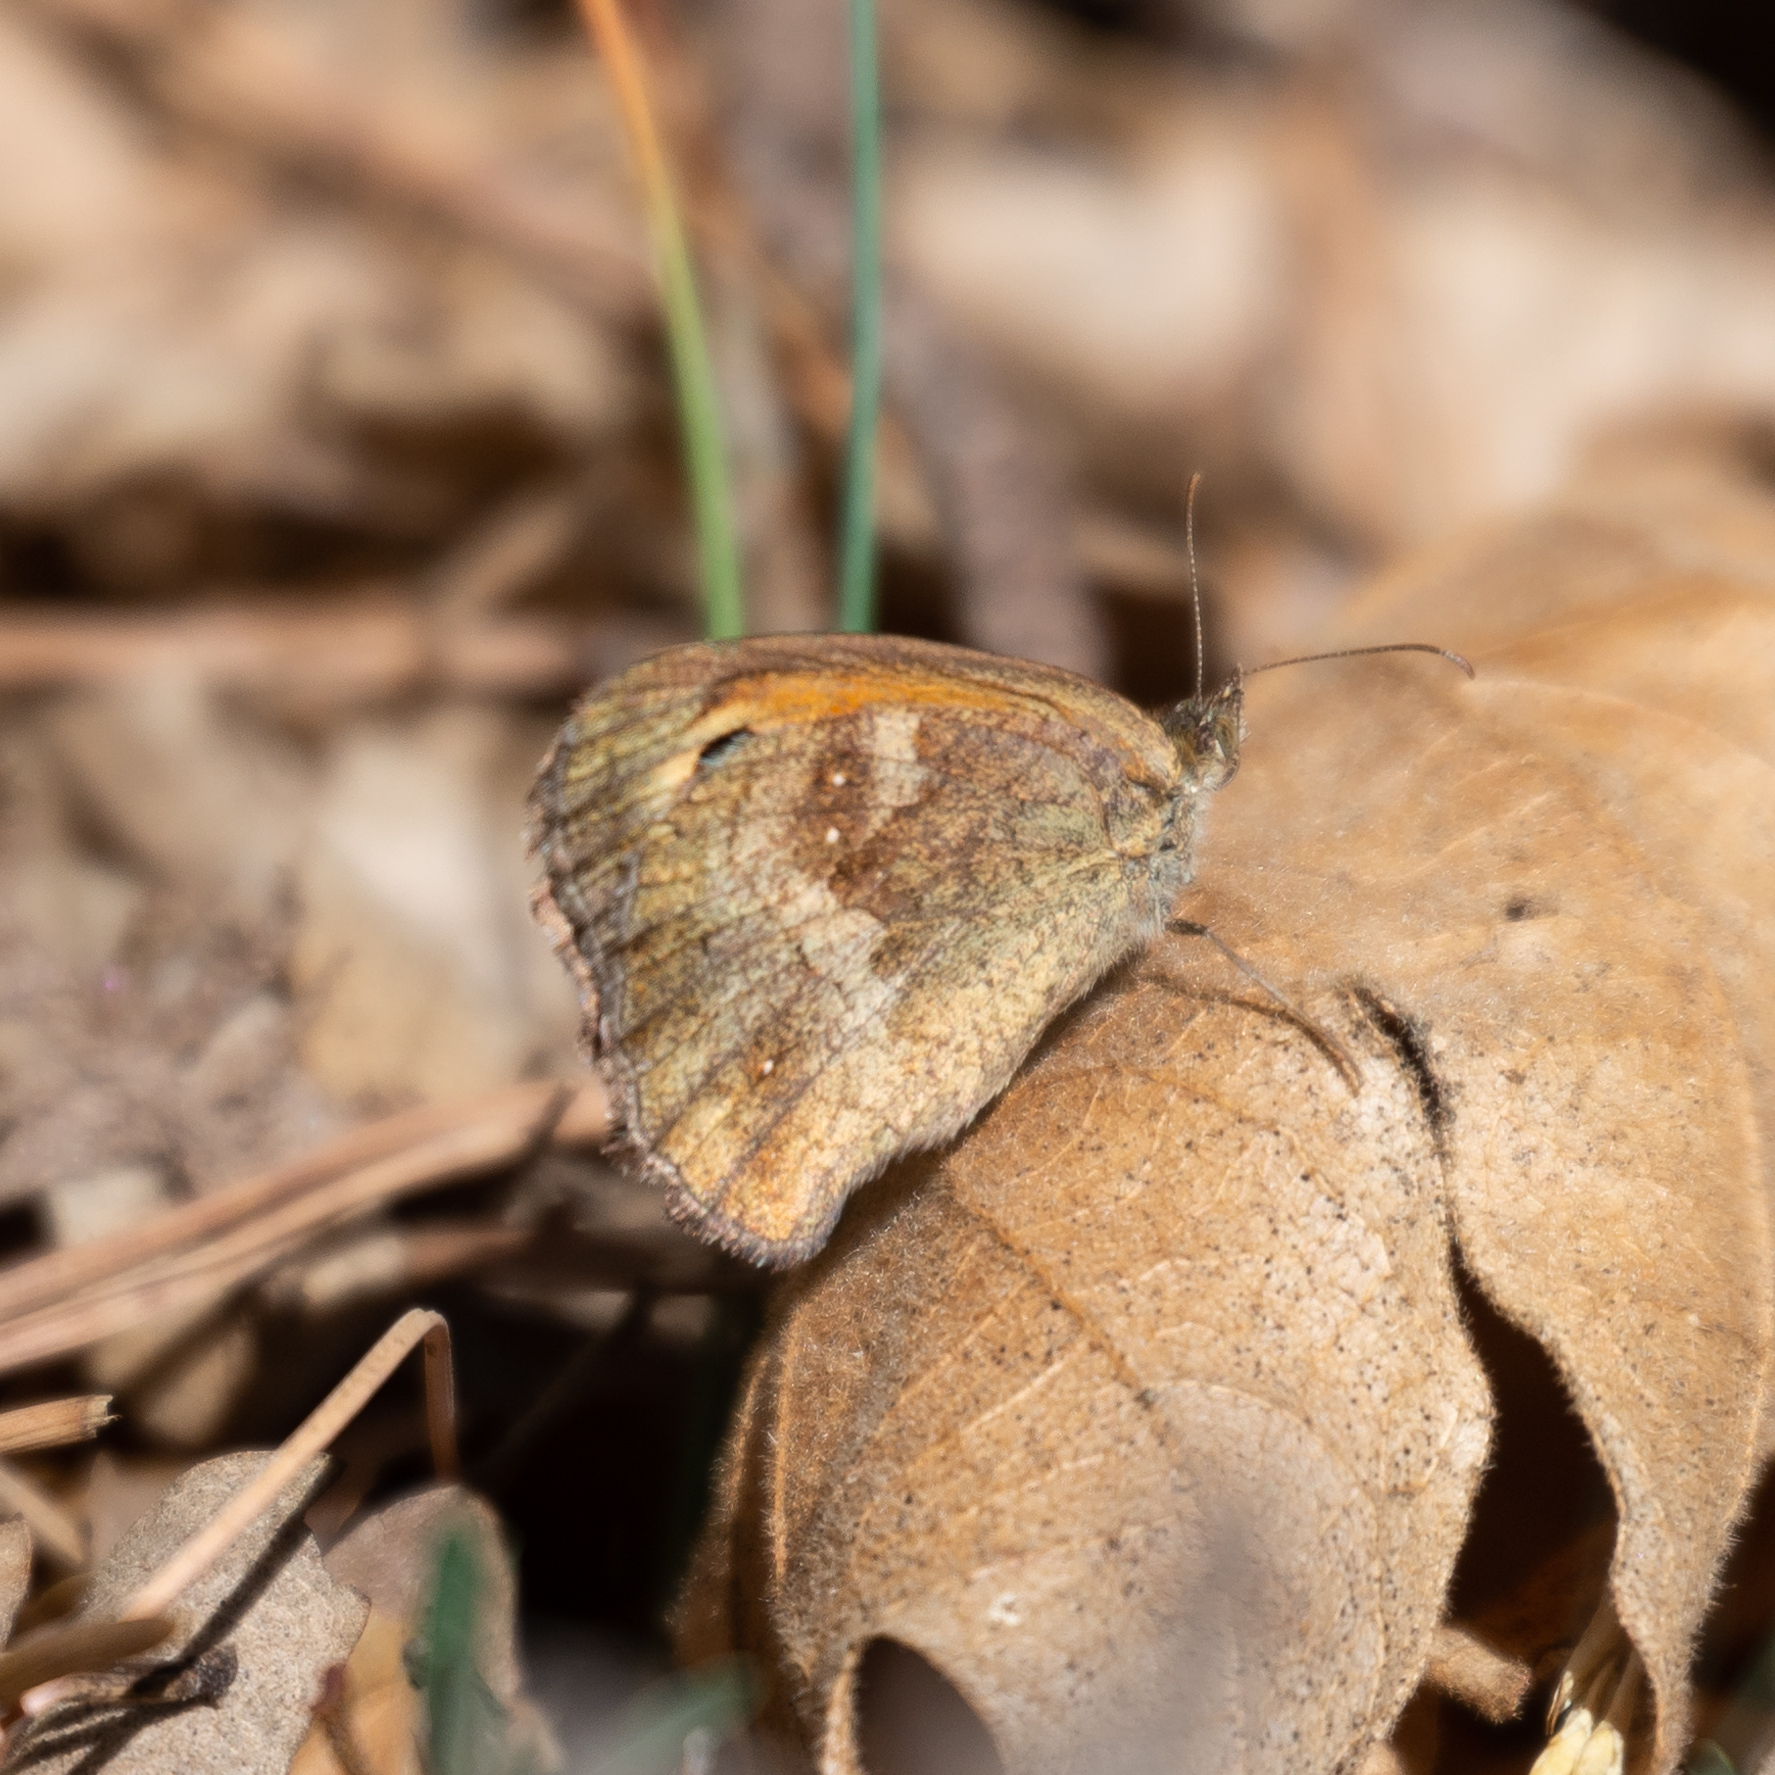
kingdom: Animalia
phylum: Arthropoda
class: Insecta
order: Lepidoptera
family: Nymphalidae
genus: Pyronia
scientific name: Pyronia tithonus
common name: Gatekeeper
